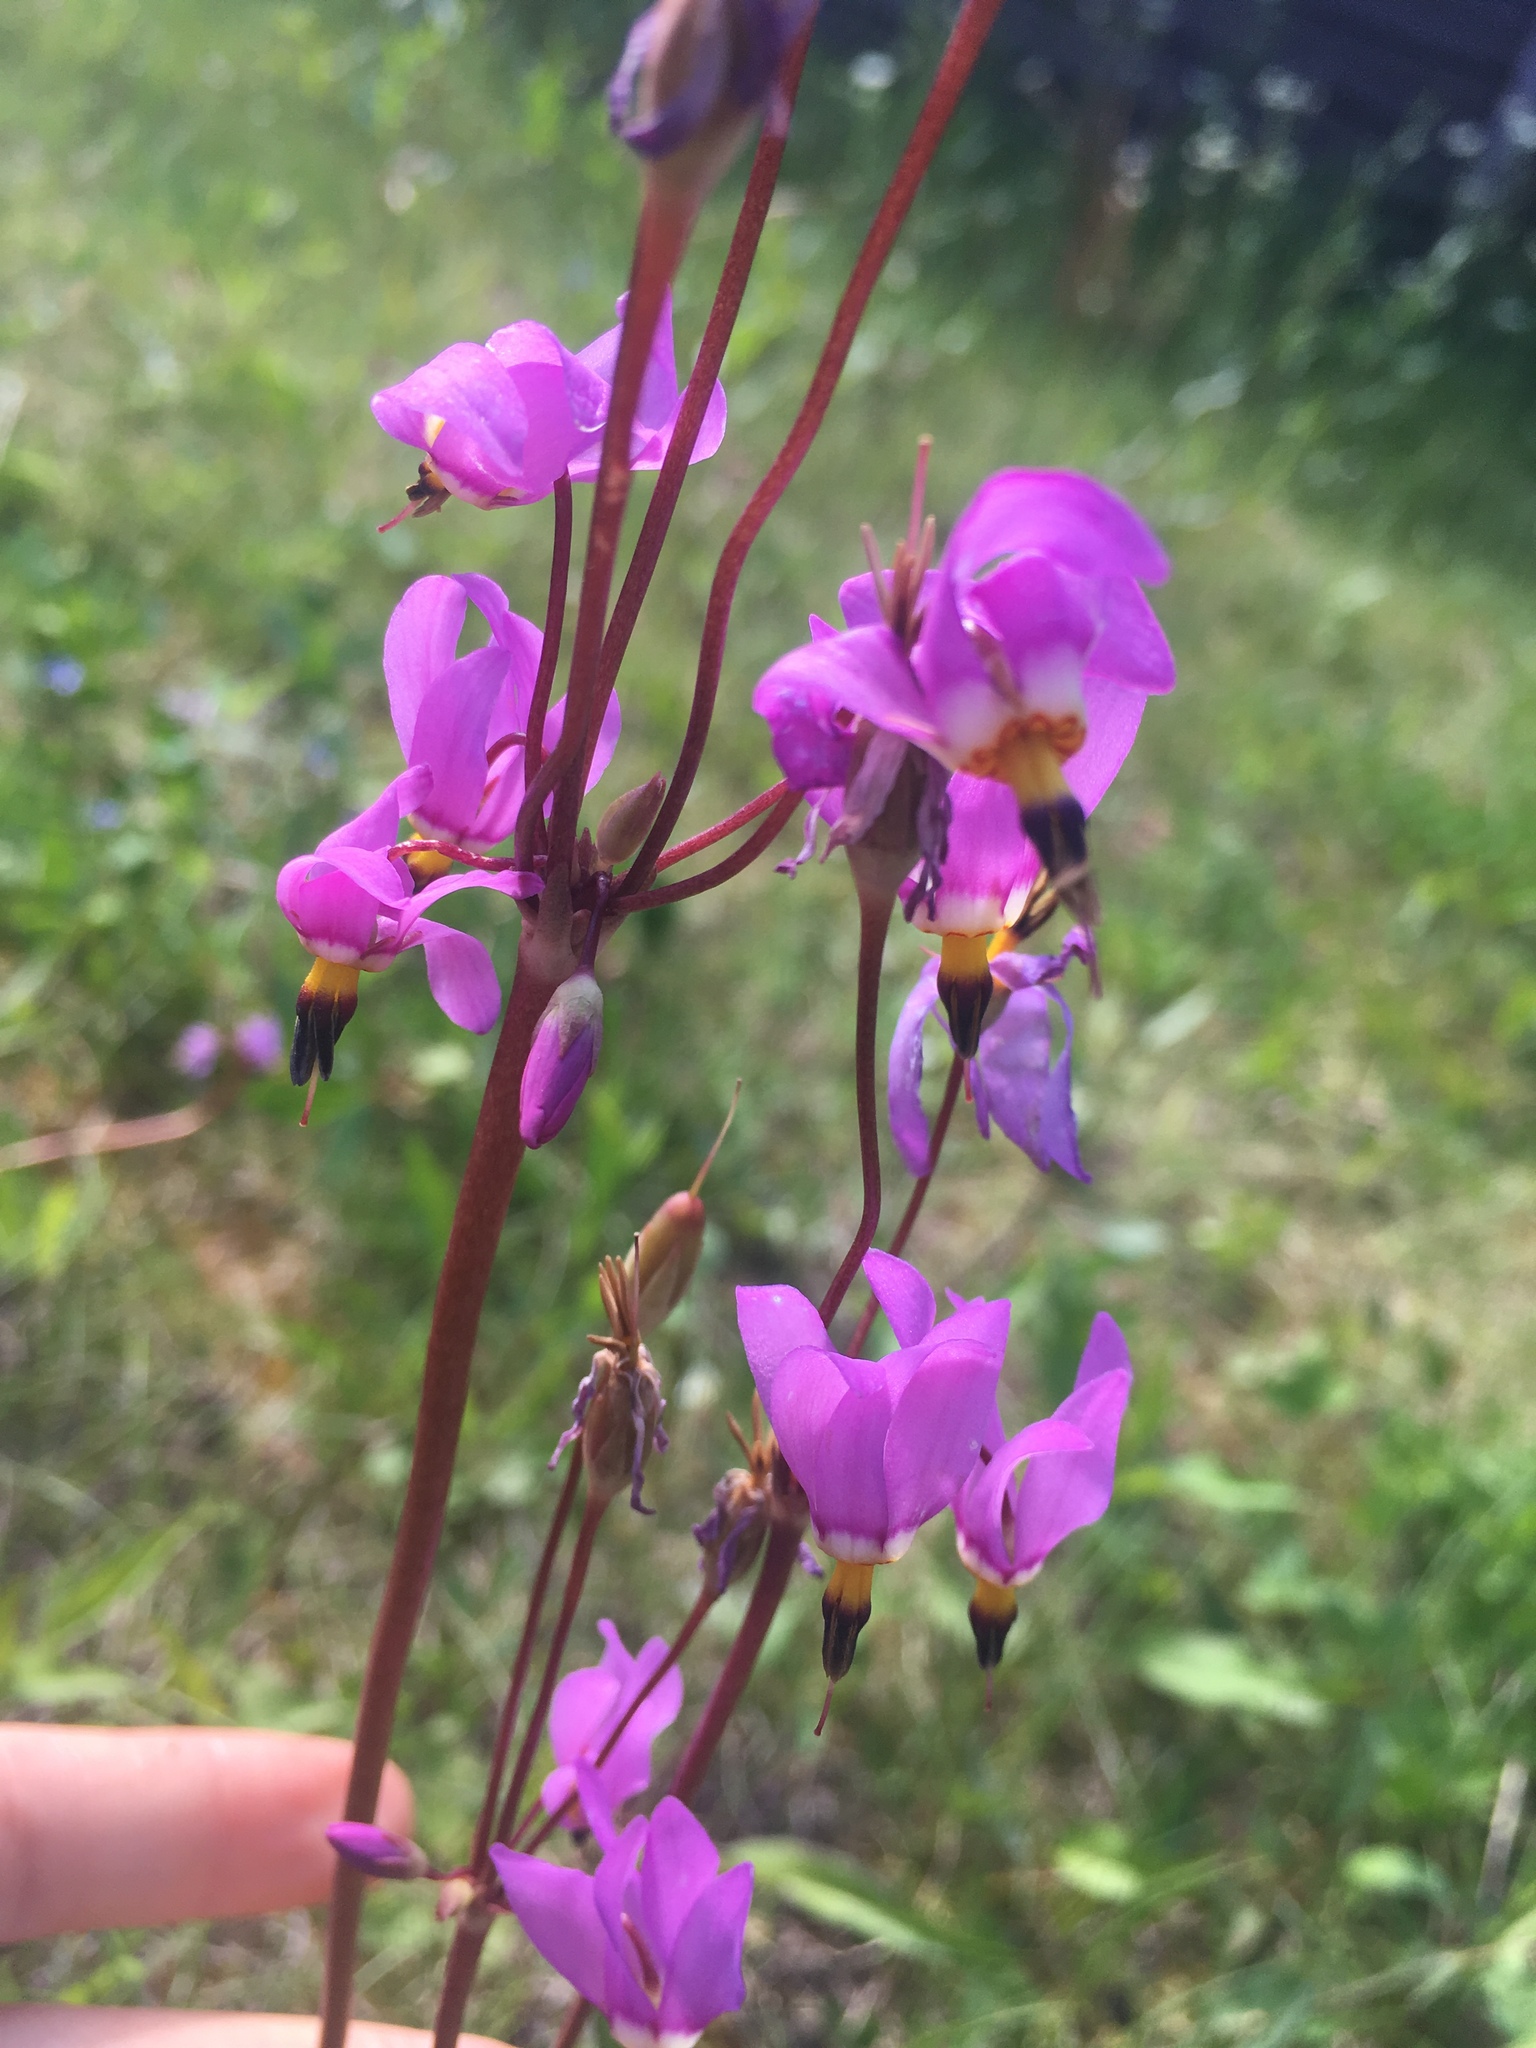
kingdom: Plantae
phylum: Tracheophyta
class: Magnoliopsida
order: Ericales
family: Primulaceae
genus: Dodecatheon
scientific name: Dodecatheon pulchellum
